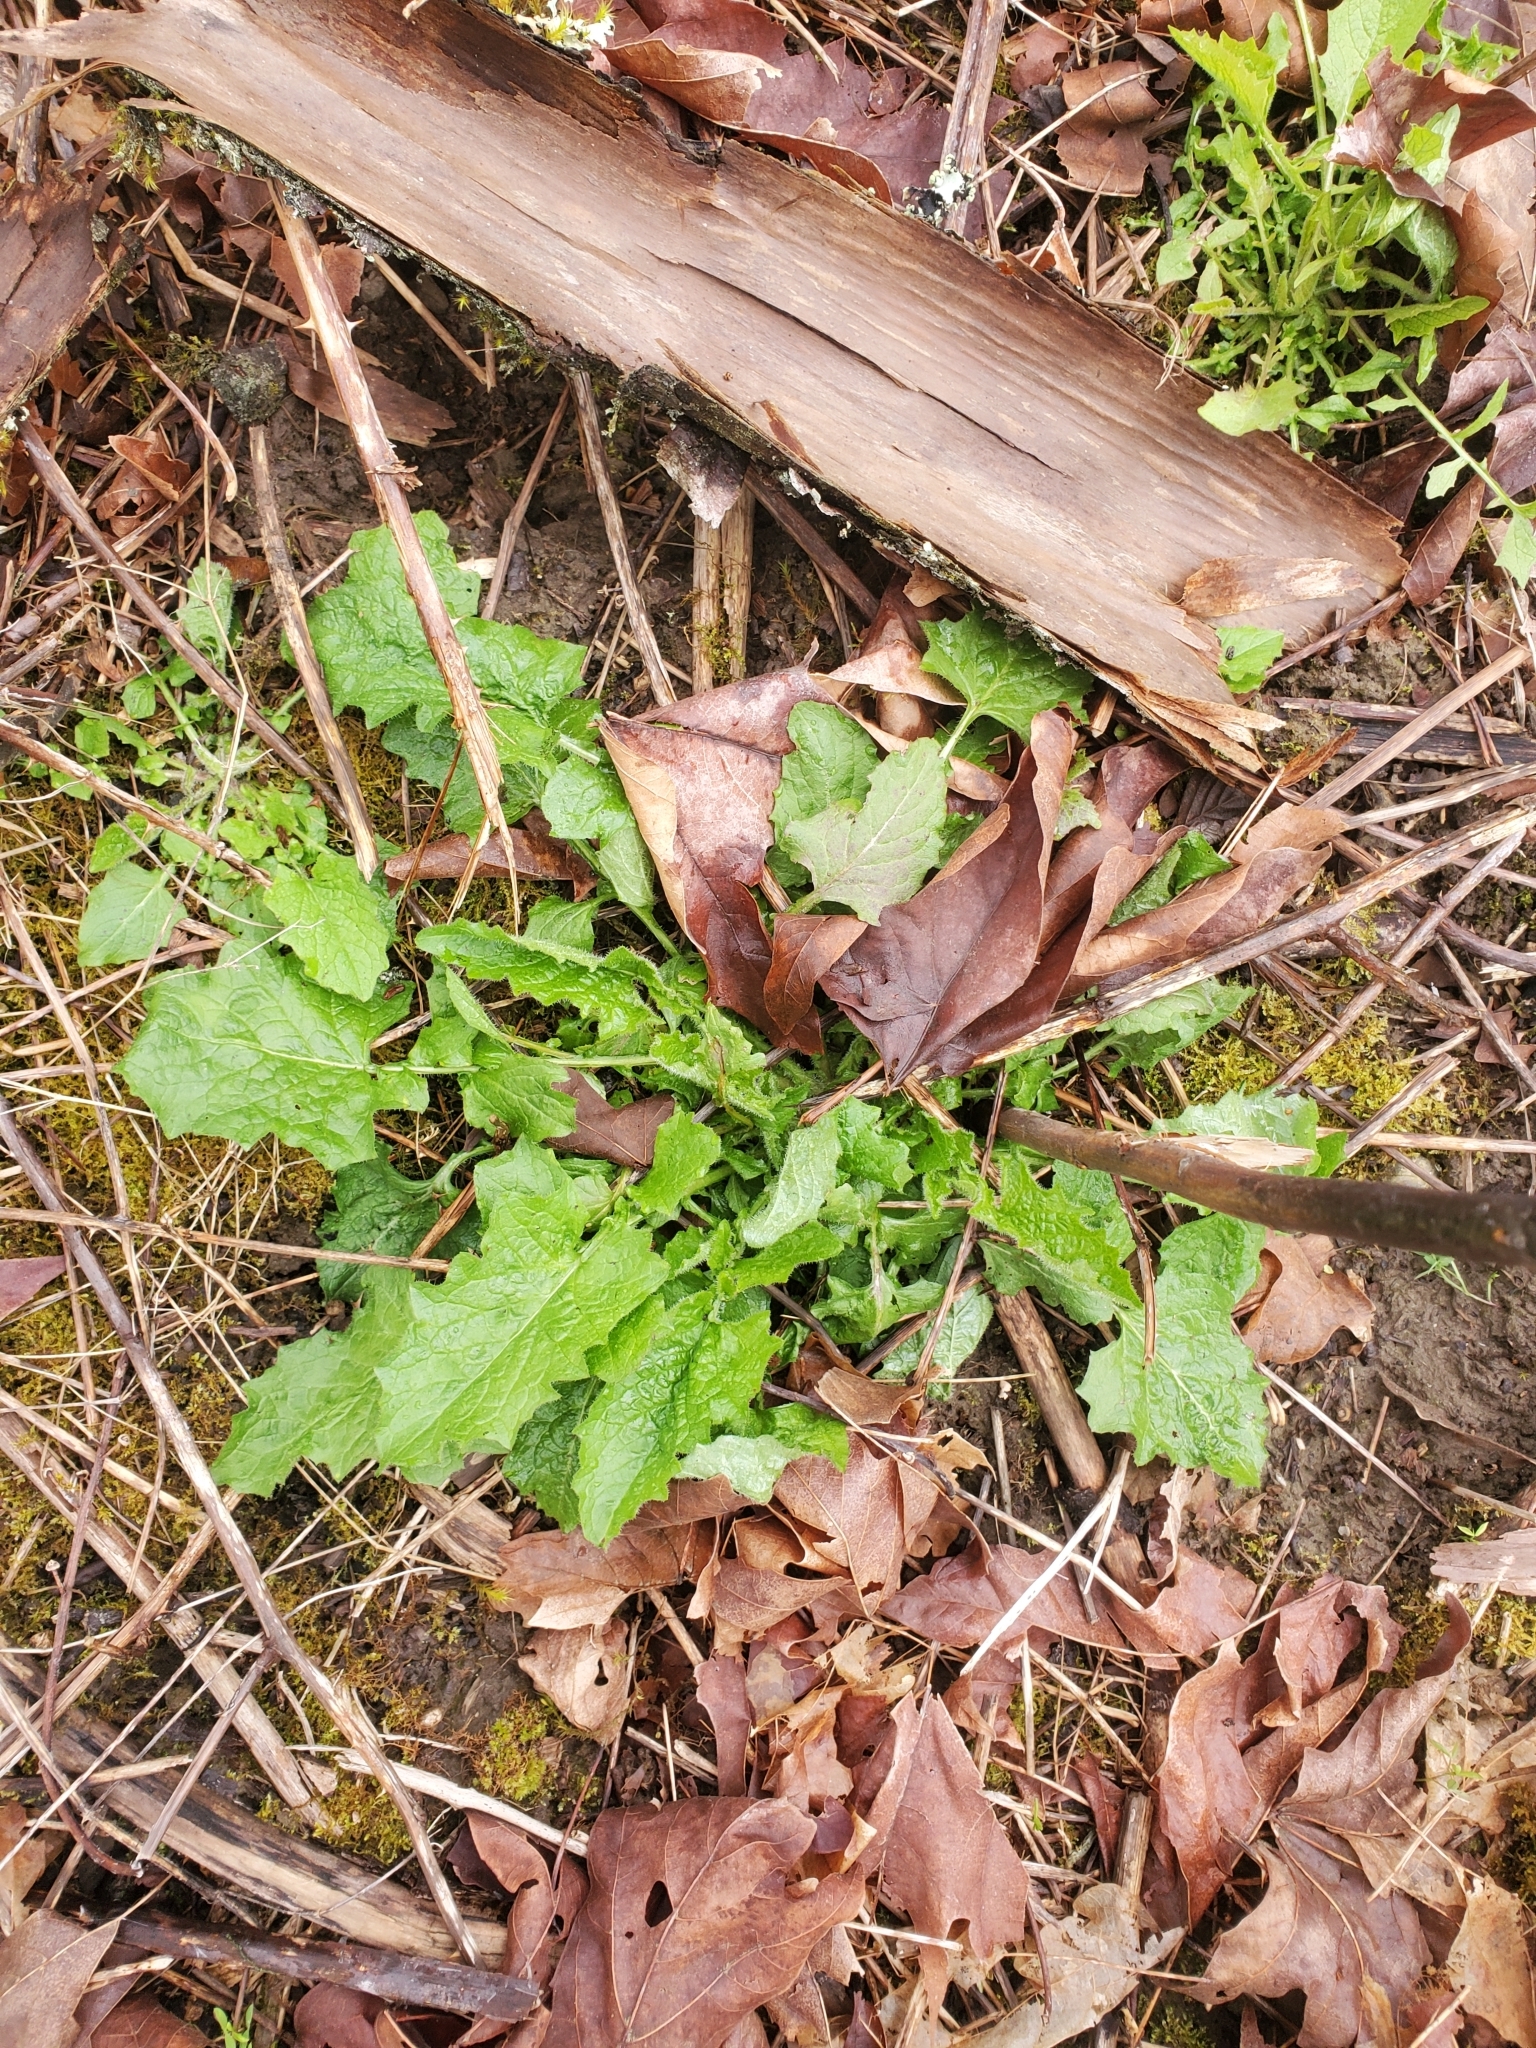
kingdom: Plantae
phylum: Tracheophyta
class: Magnoliopsida
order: Asterales
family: Asteraceae
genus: Lapsana
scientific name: Lapsana communis
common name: Nipplewort
